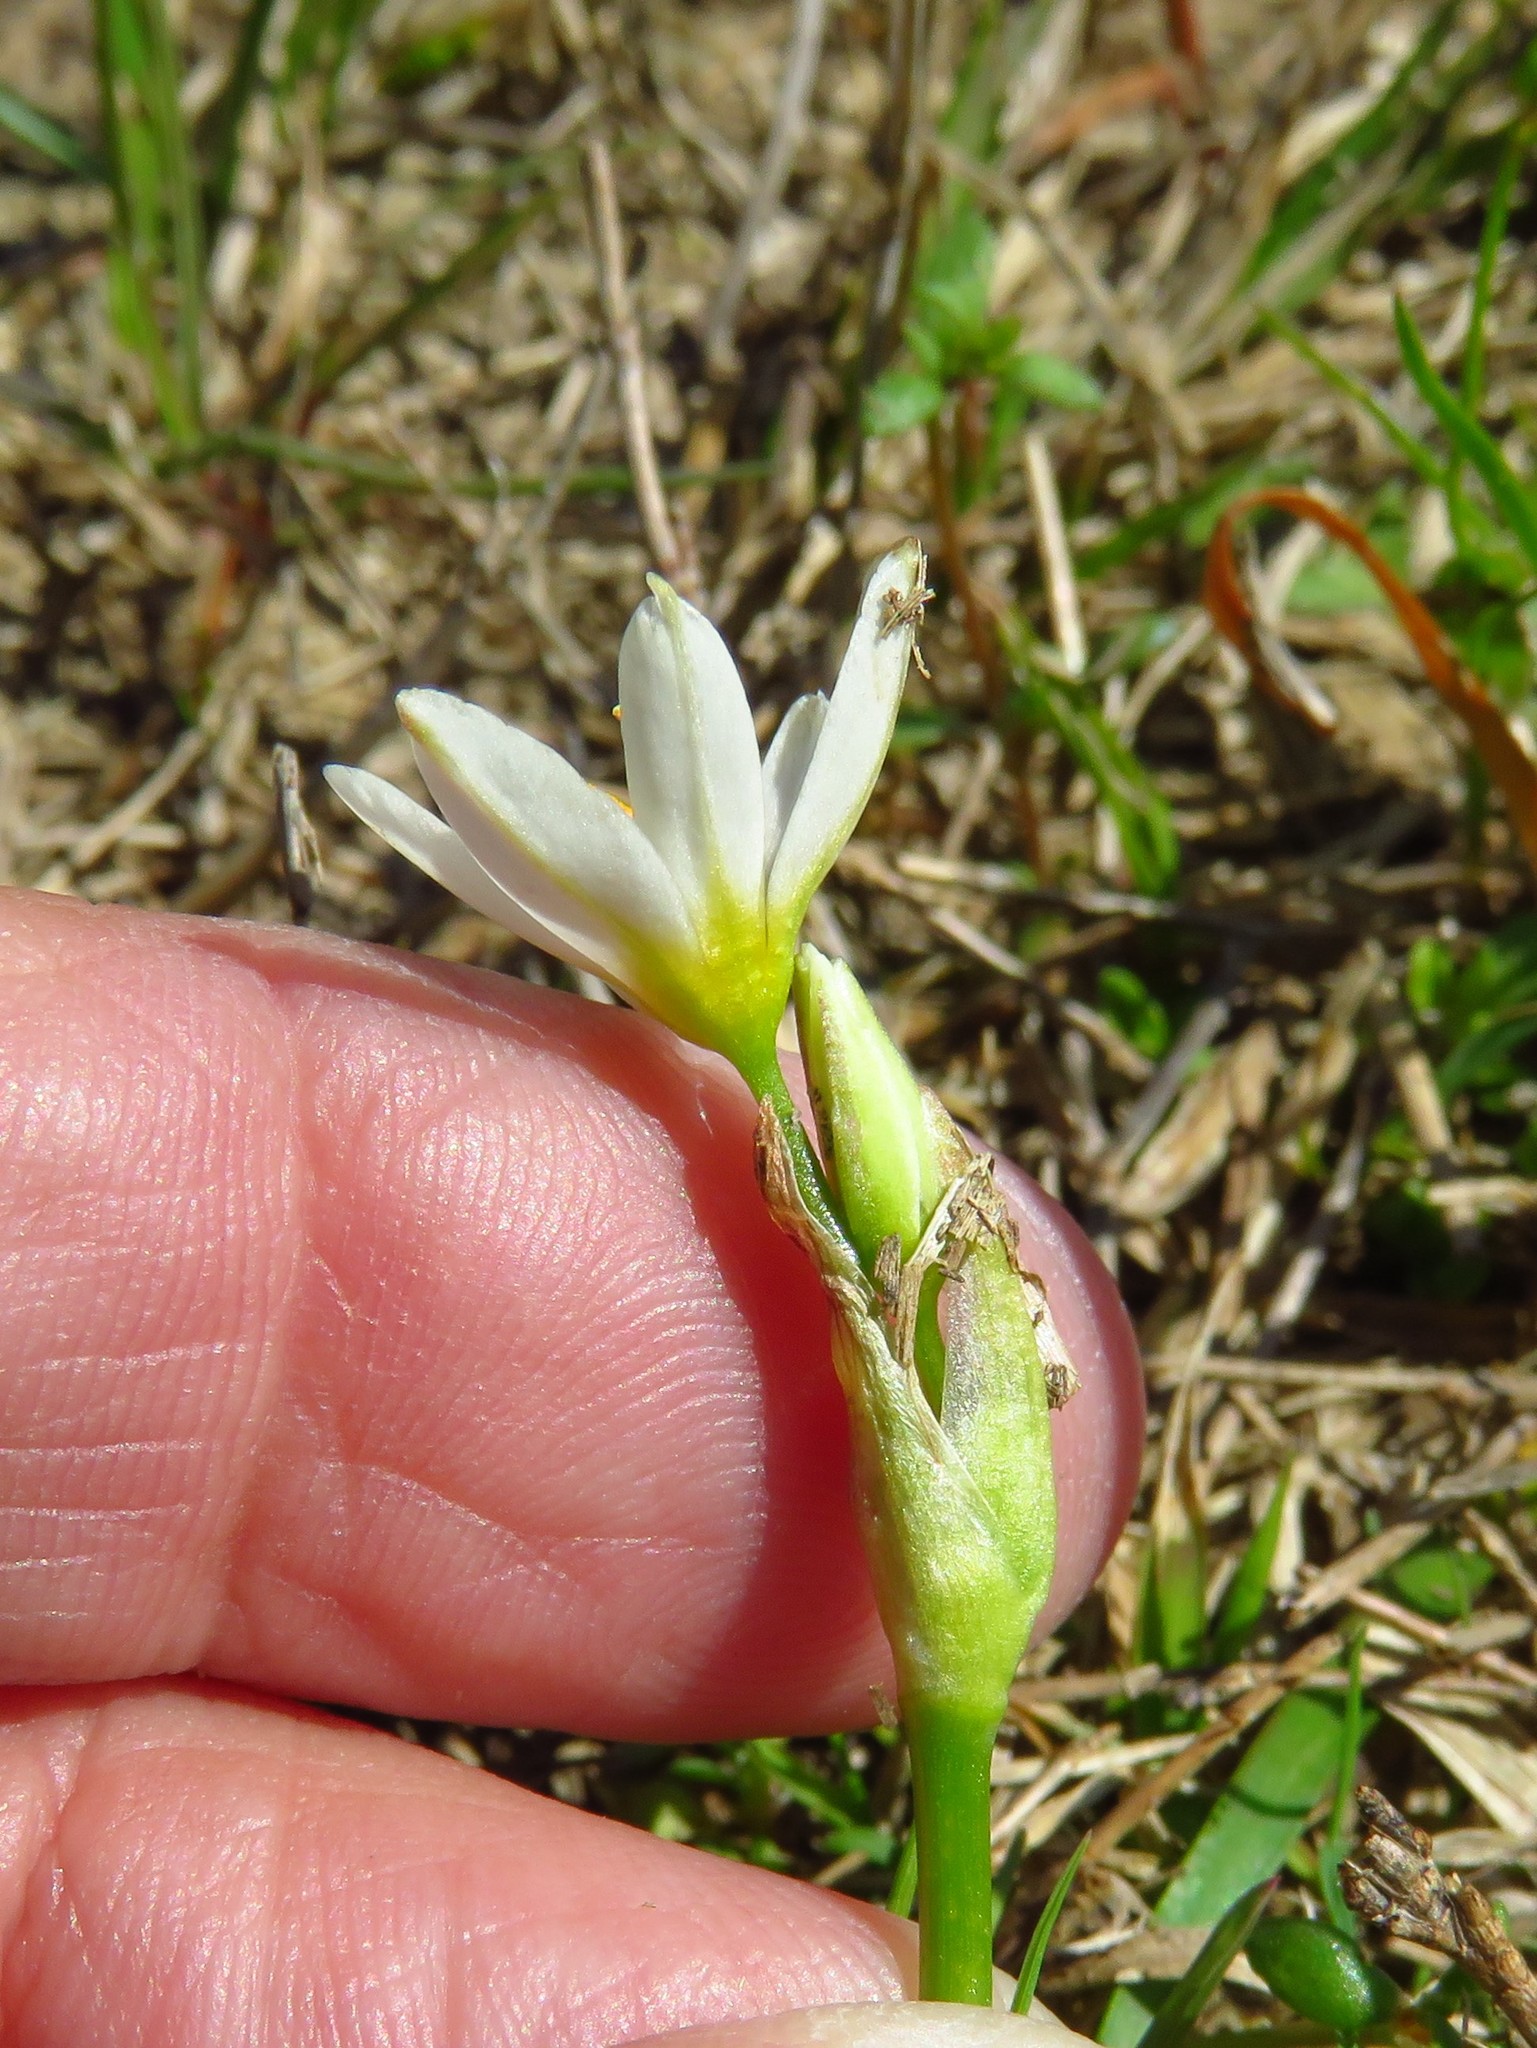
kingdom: Plantae
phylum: Tracheophyta
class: Liliopsida
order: Asparagales
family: Amaryllidaceae
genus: Nothoscordum
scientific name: Nothoscordum bivalve
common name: Crow-poison
